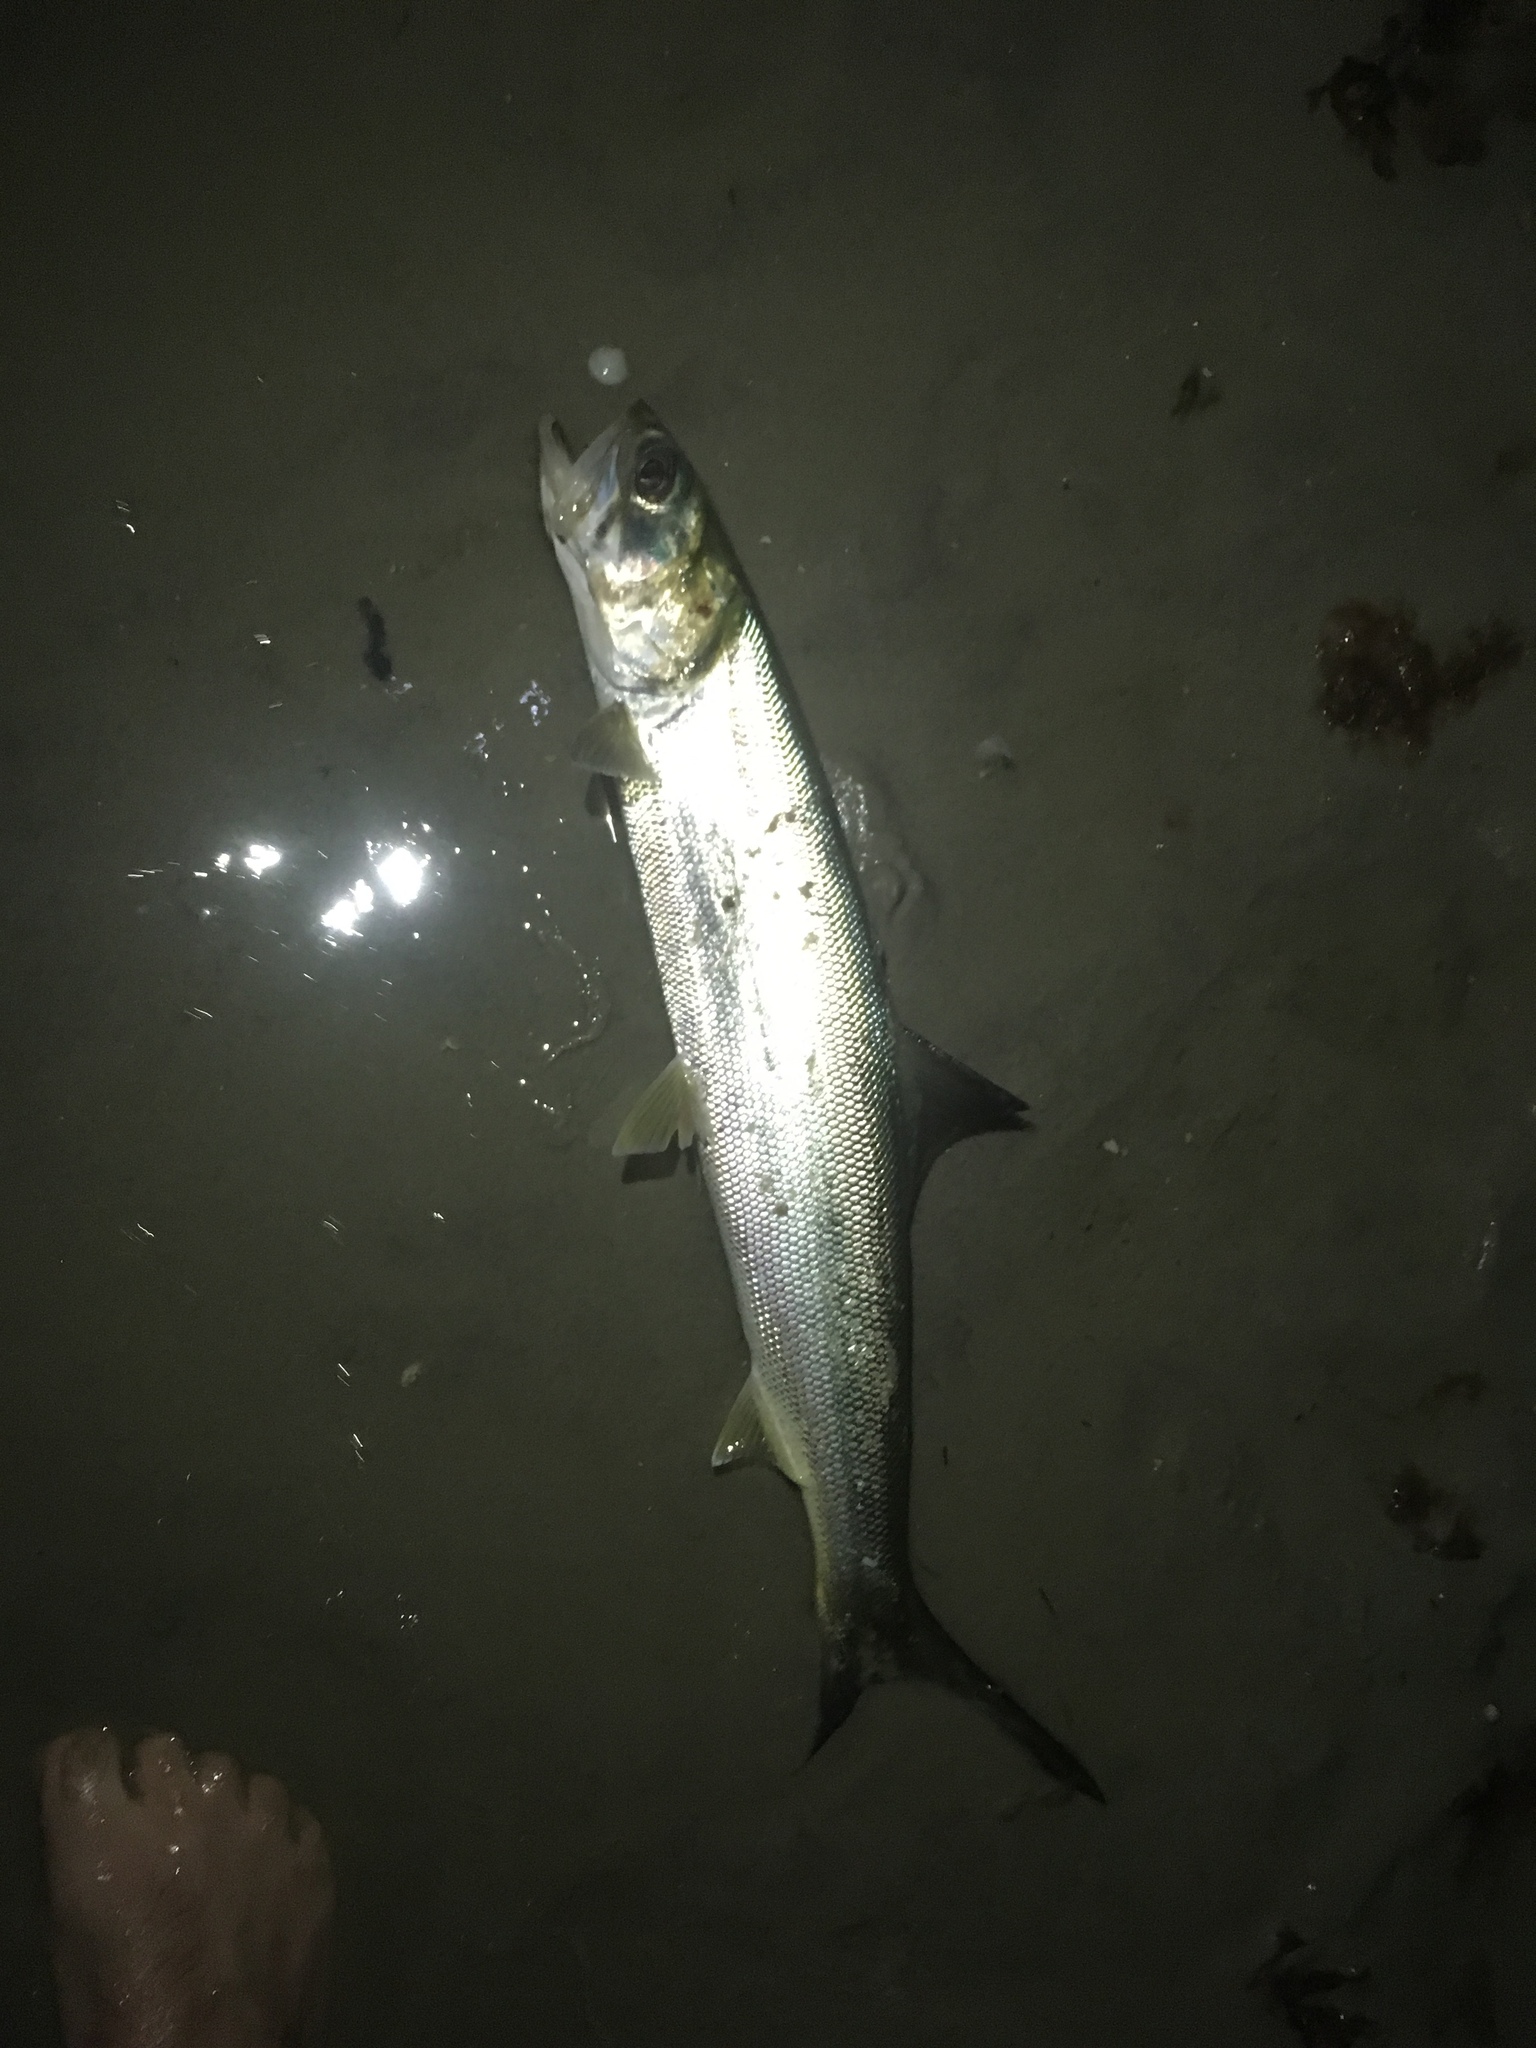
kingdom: Animalia
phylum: Chordata
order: Elopiformes
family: Elopidae
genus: Elops
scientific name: Elops saurus
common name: Ladyfish
